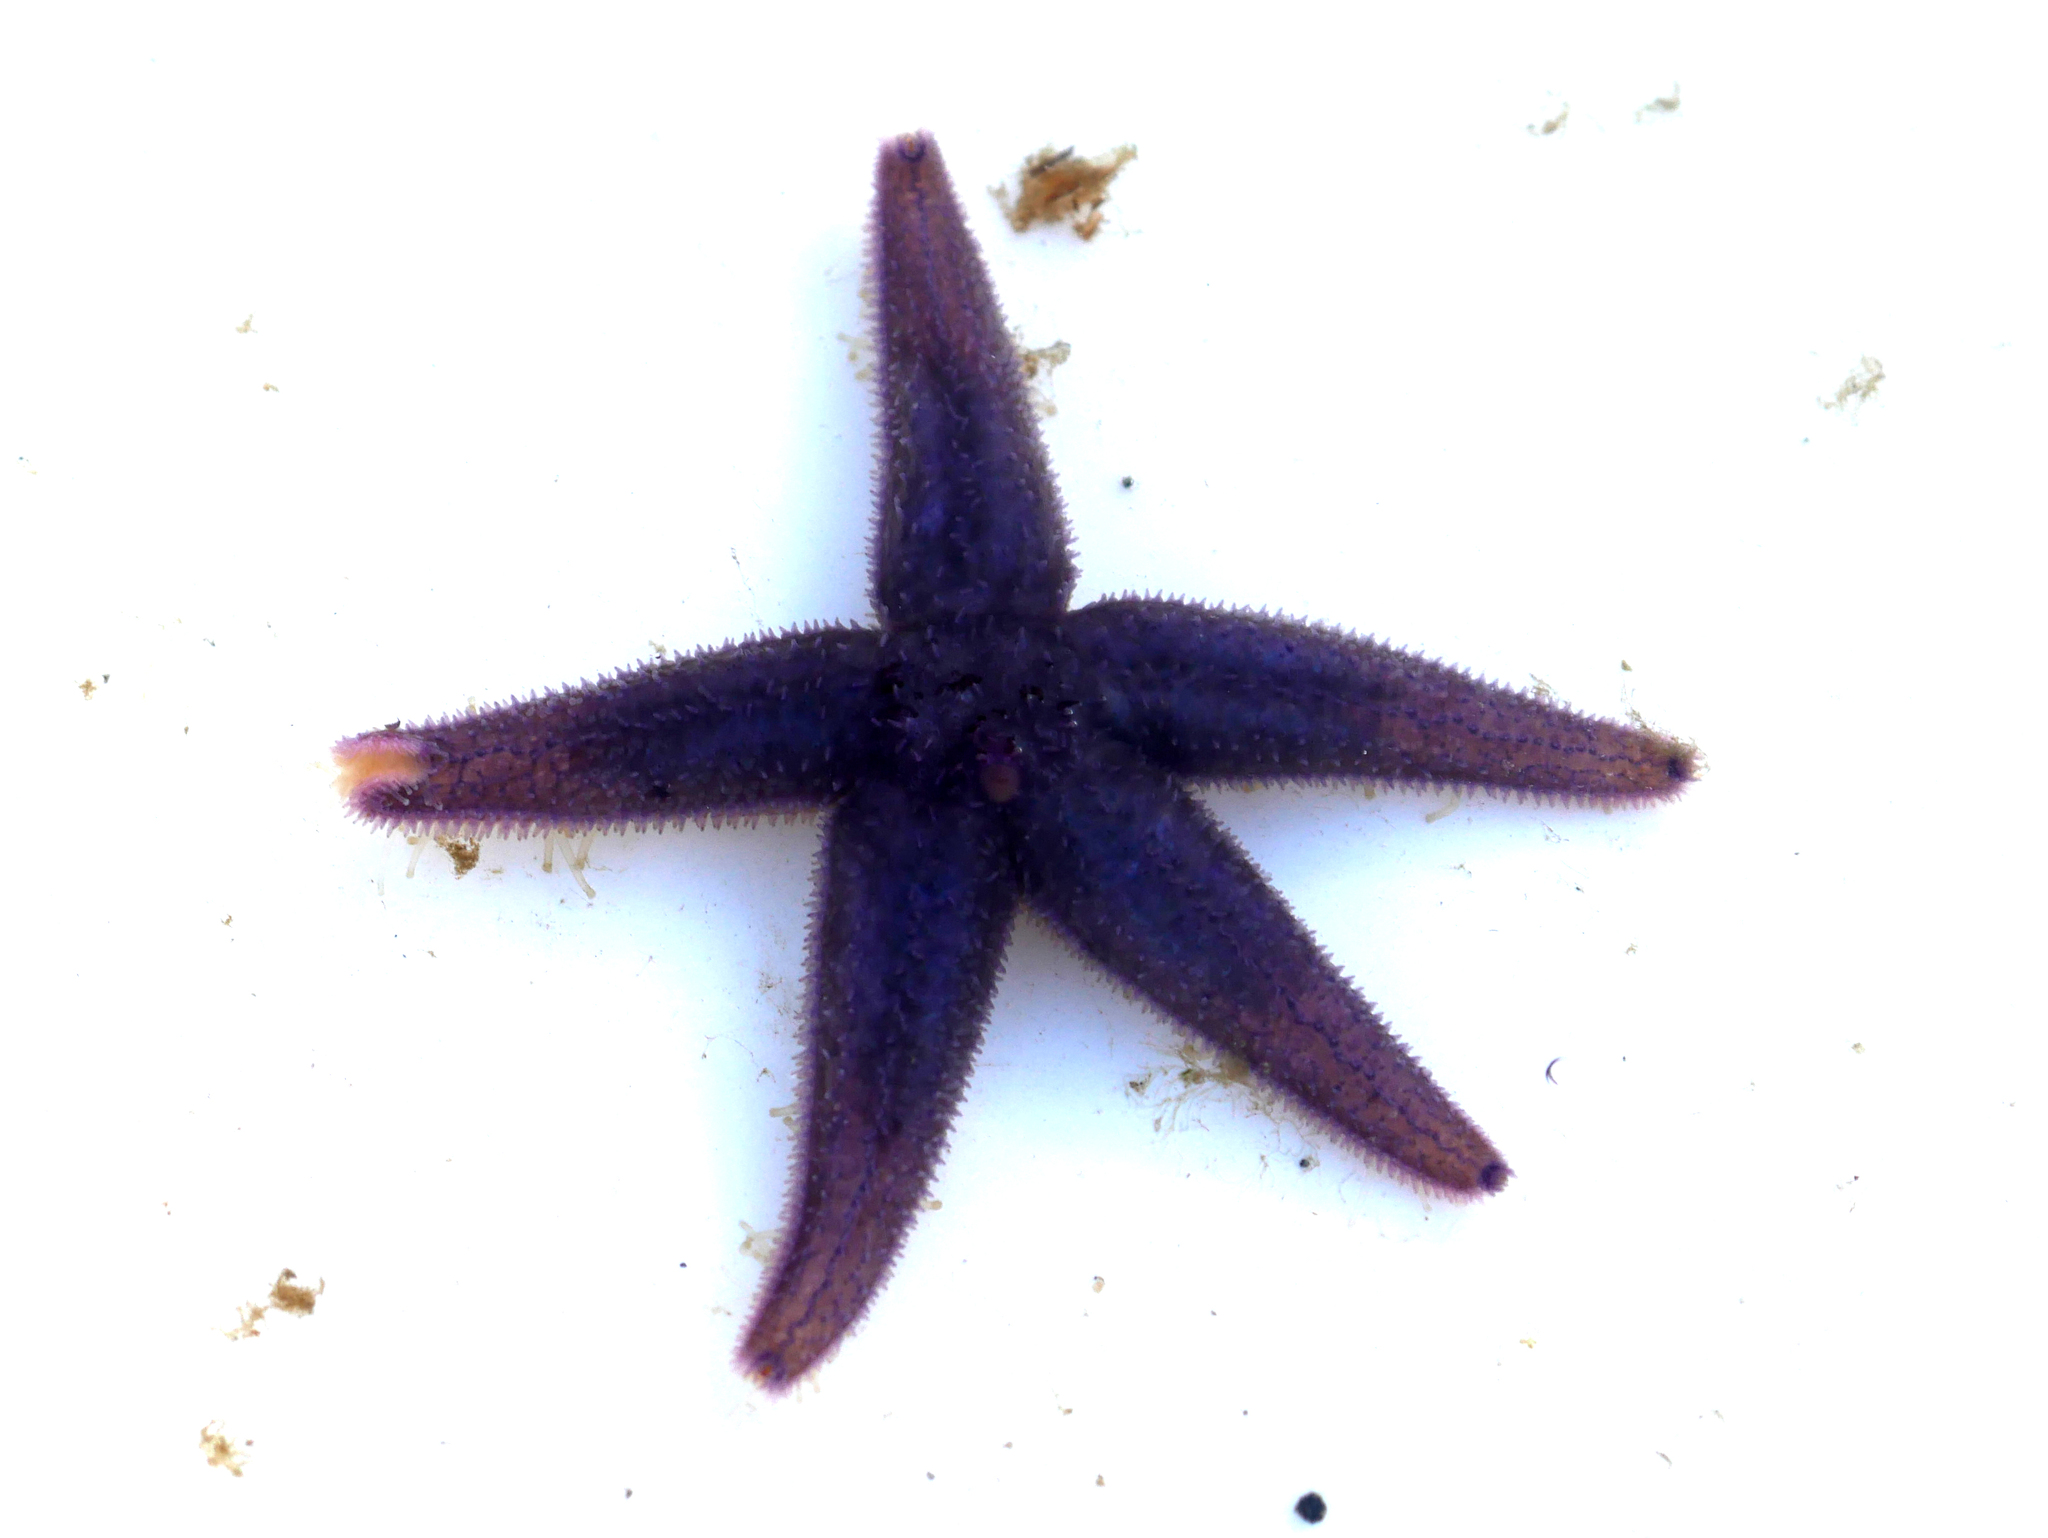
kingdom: Animalia
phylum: Echinodermata
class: Asteroidea
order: Forcipulatida
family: Asteriidae
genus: Asterias
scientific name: Asterias rubens
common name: Common starfish
